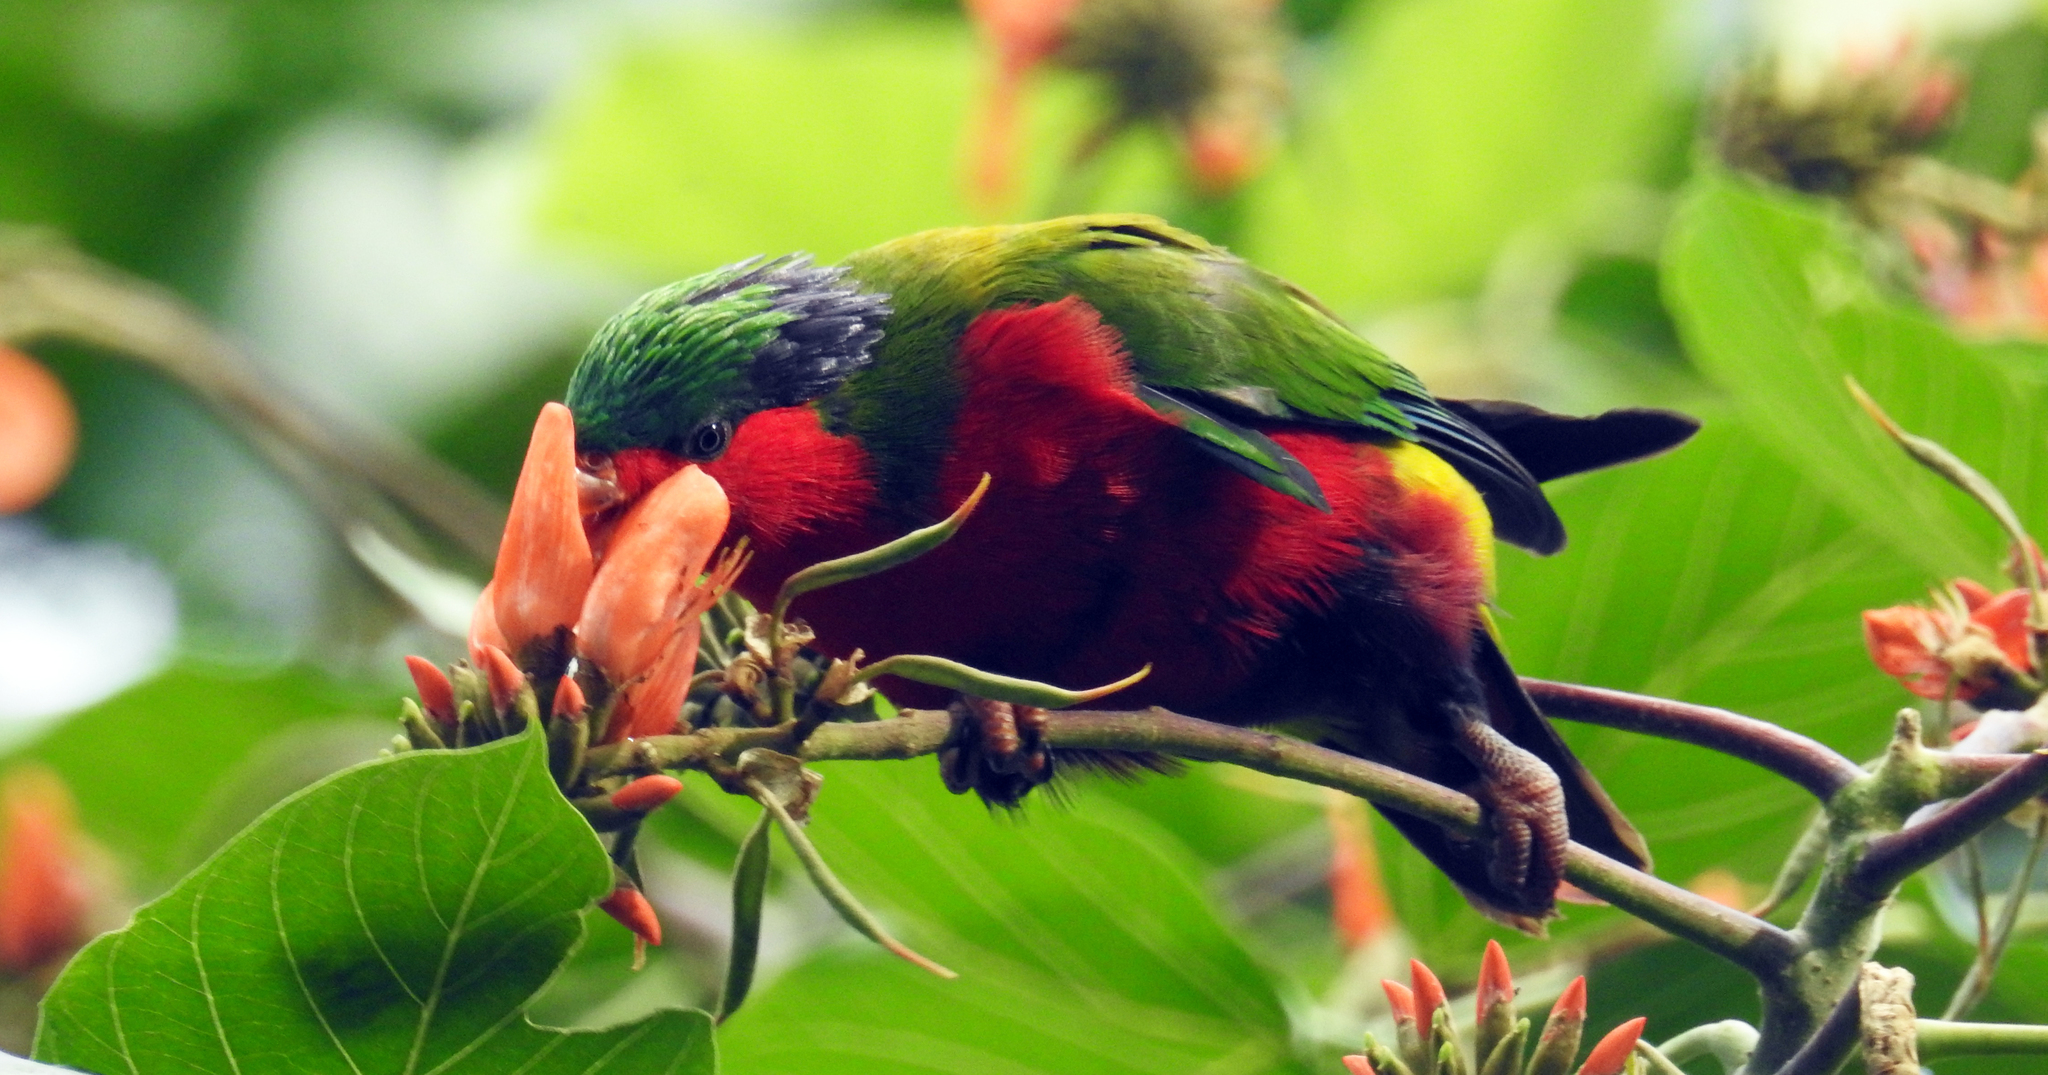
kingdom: Animalia
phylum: Chordata
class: Aves
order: Psittaciformes
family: Psittacidae
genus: Vini
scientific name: Vini kuhlii
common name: Kuhl's lorikeet
